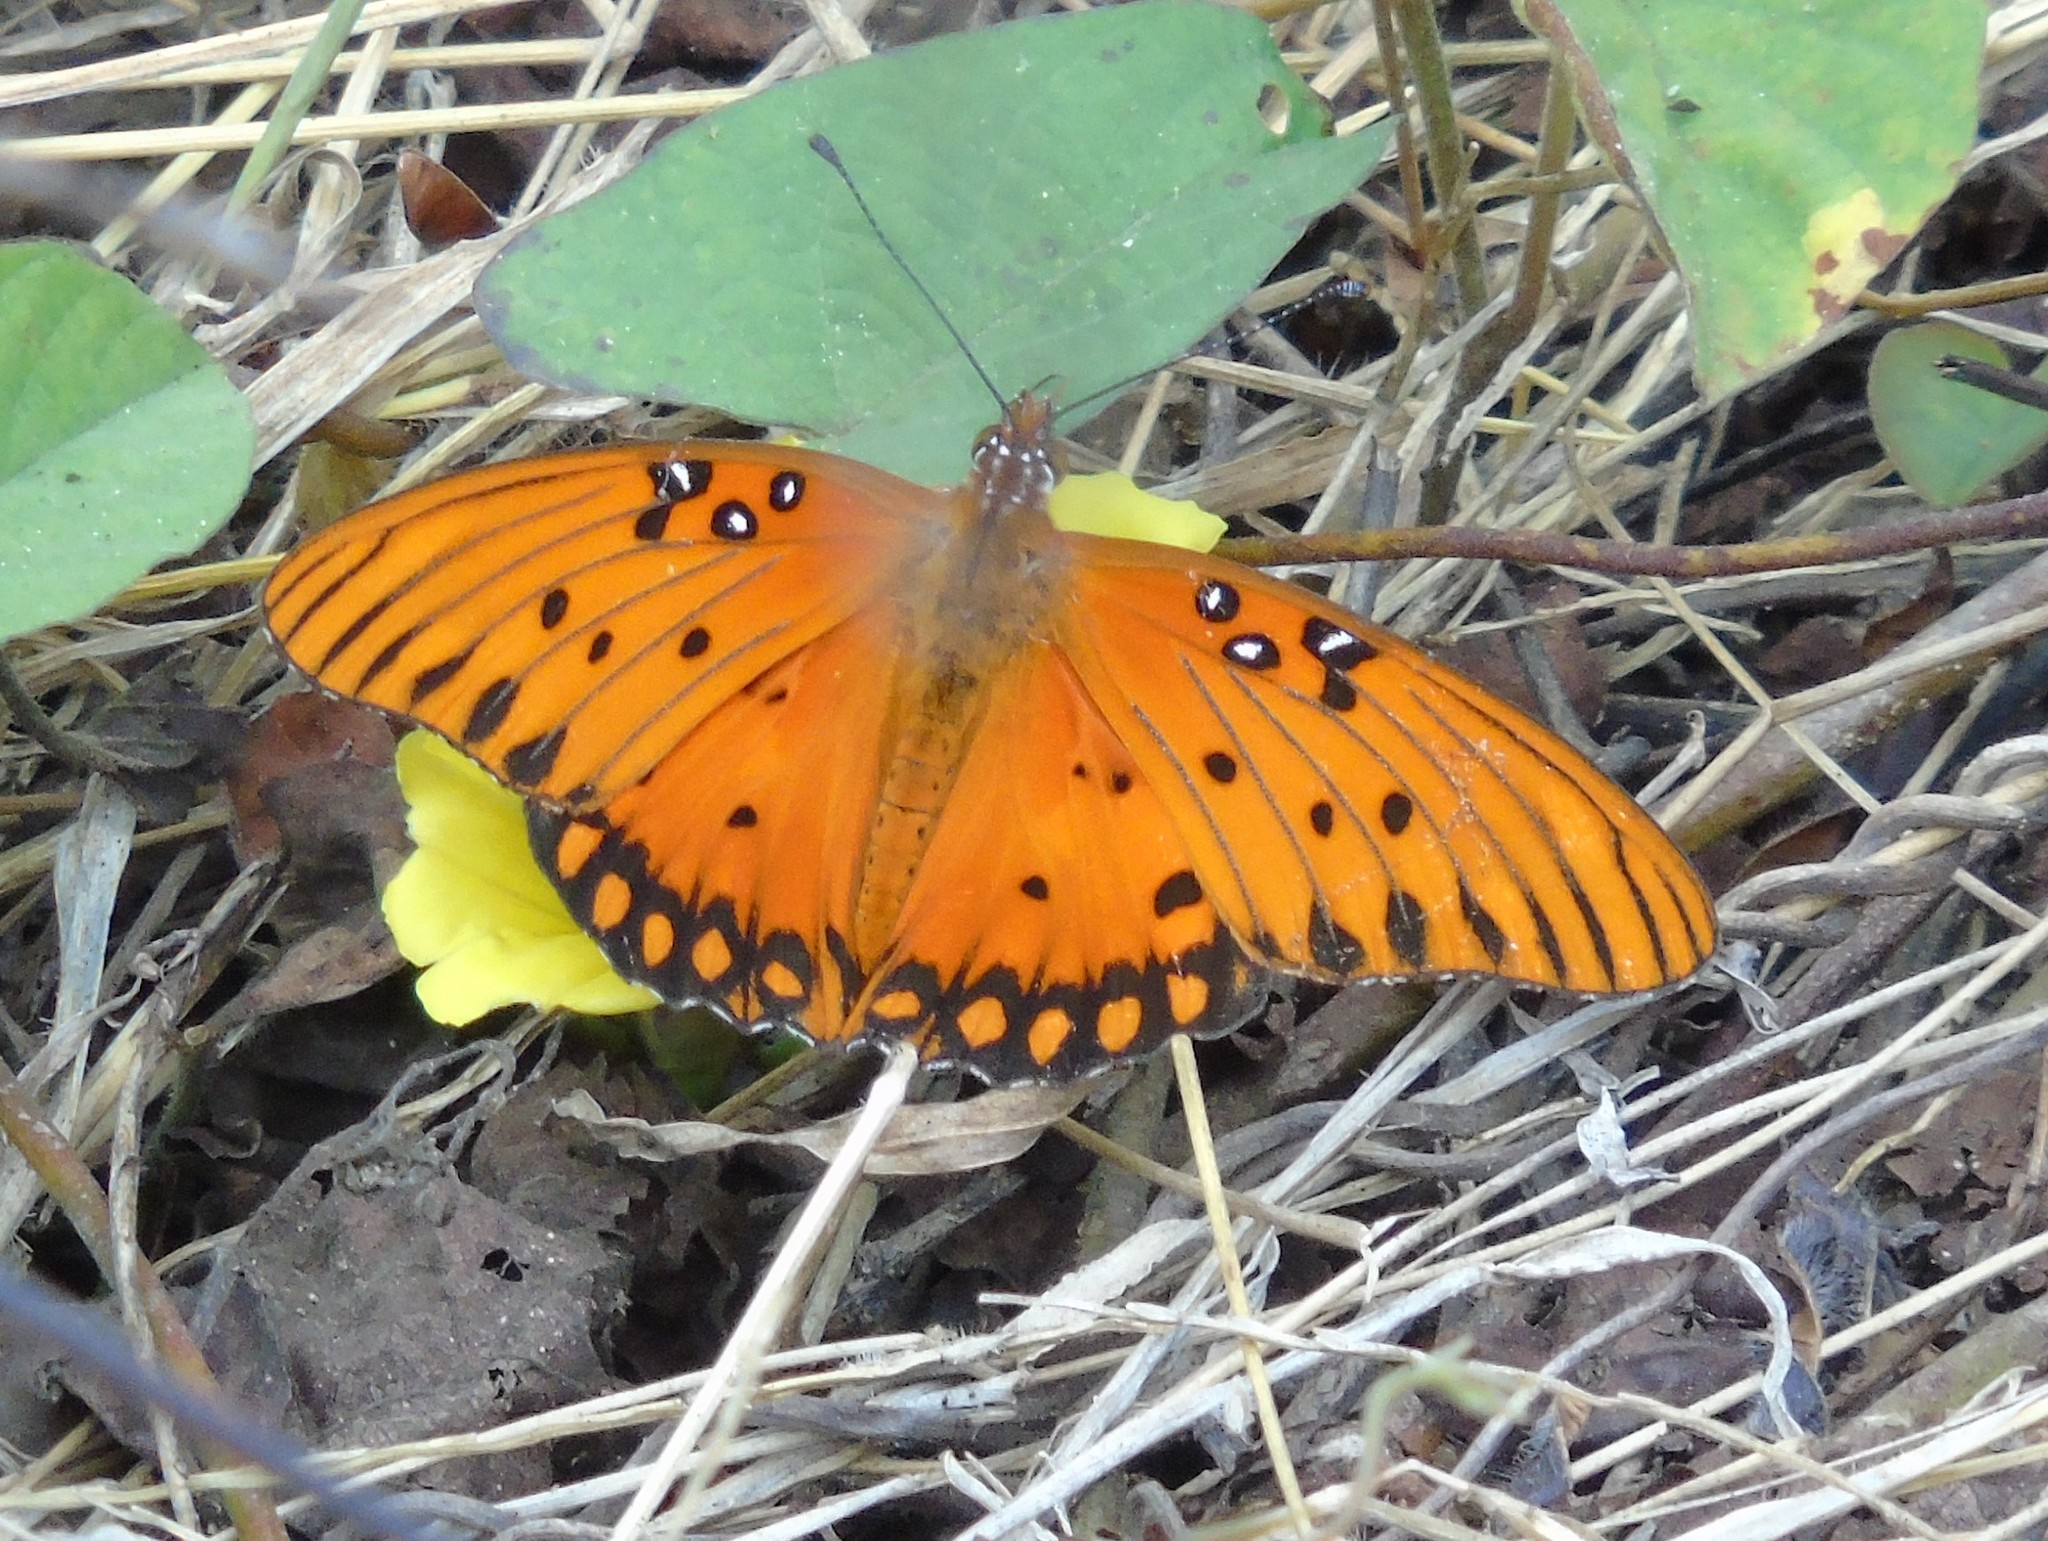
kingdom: Animalia
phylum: Arthropoda
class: Insecta
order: Lepidoptera
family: Nymphalidae
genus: Dione
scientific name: Dione vanillae
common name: Gulf fritillary
